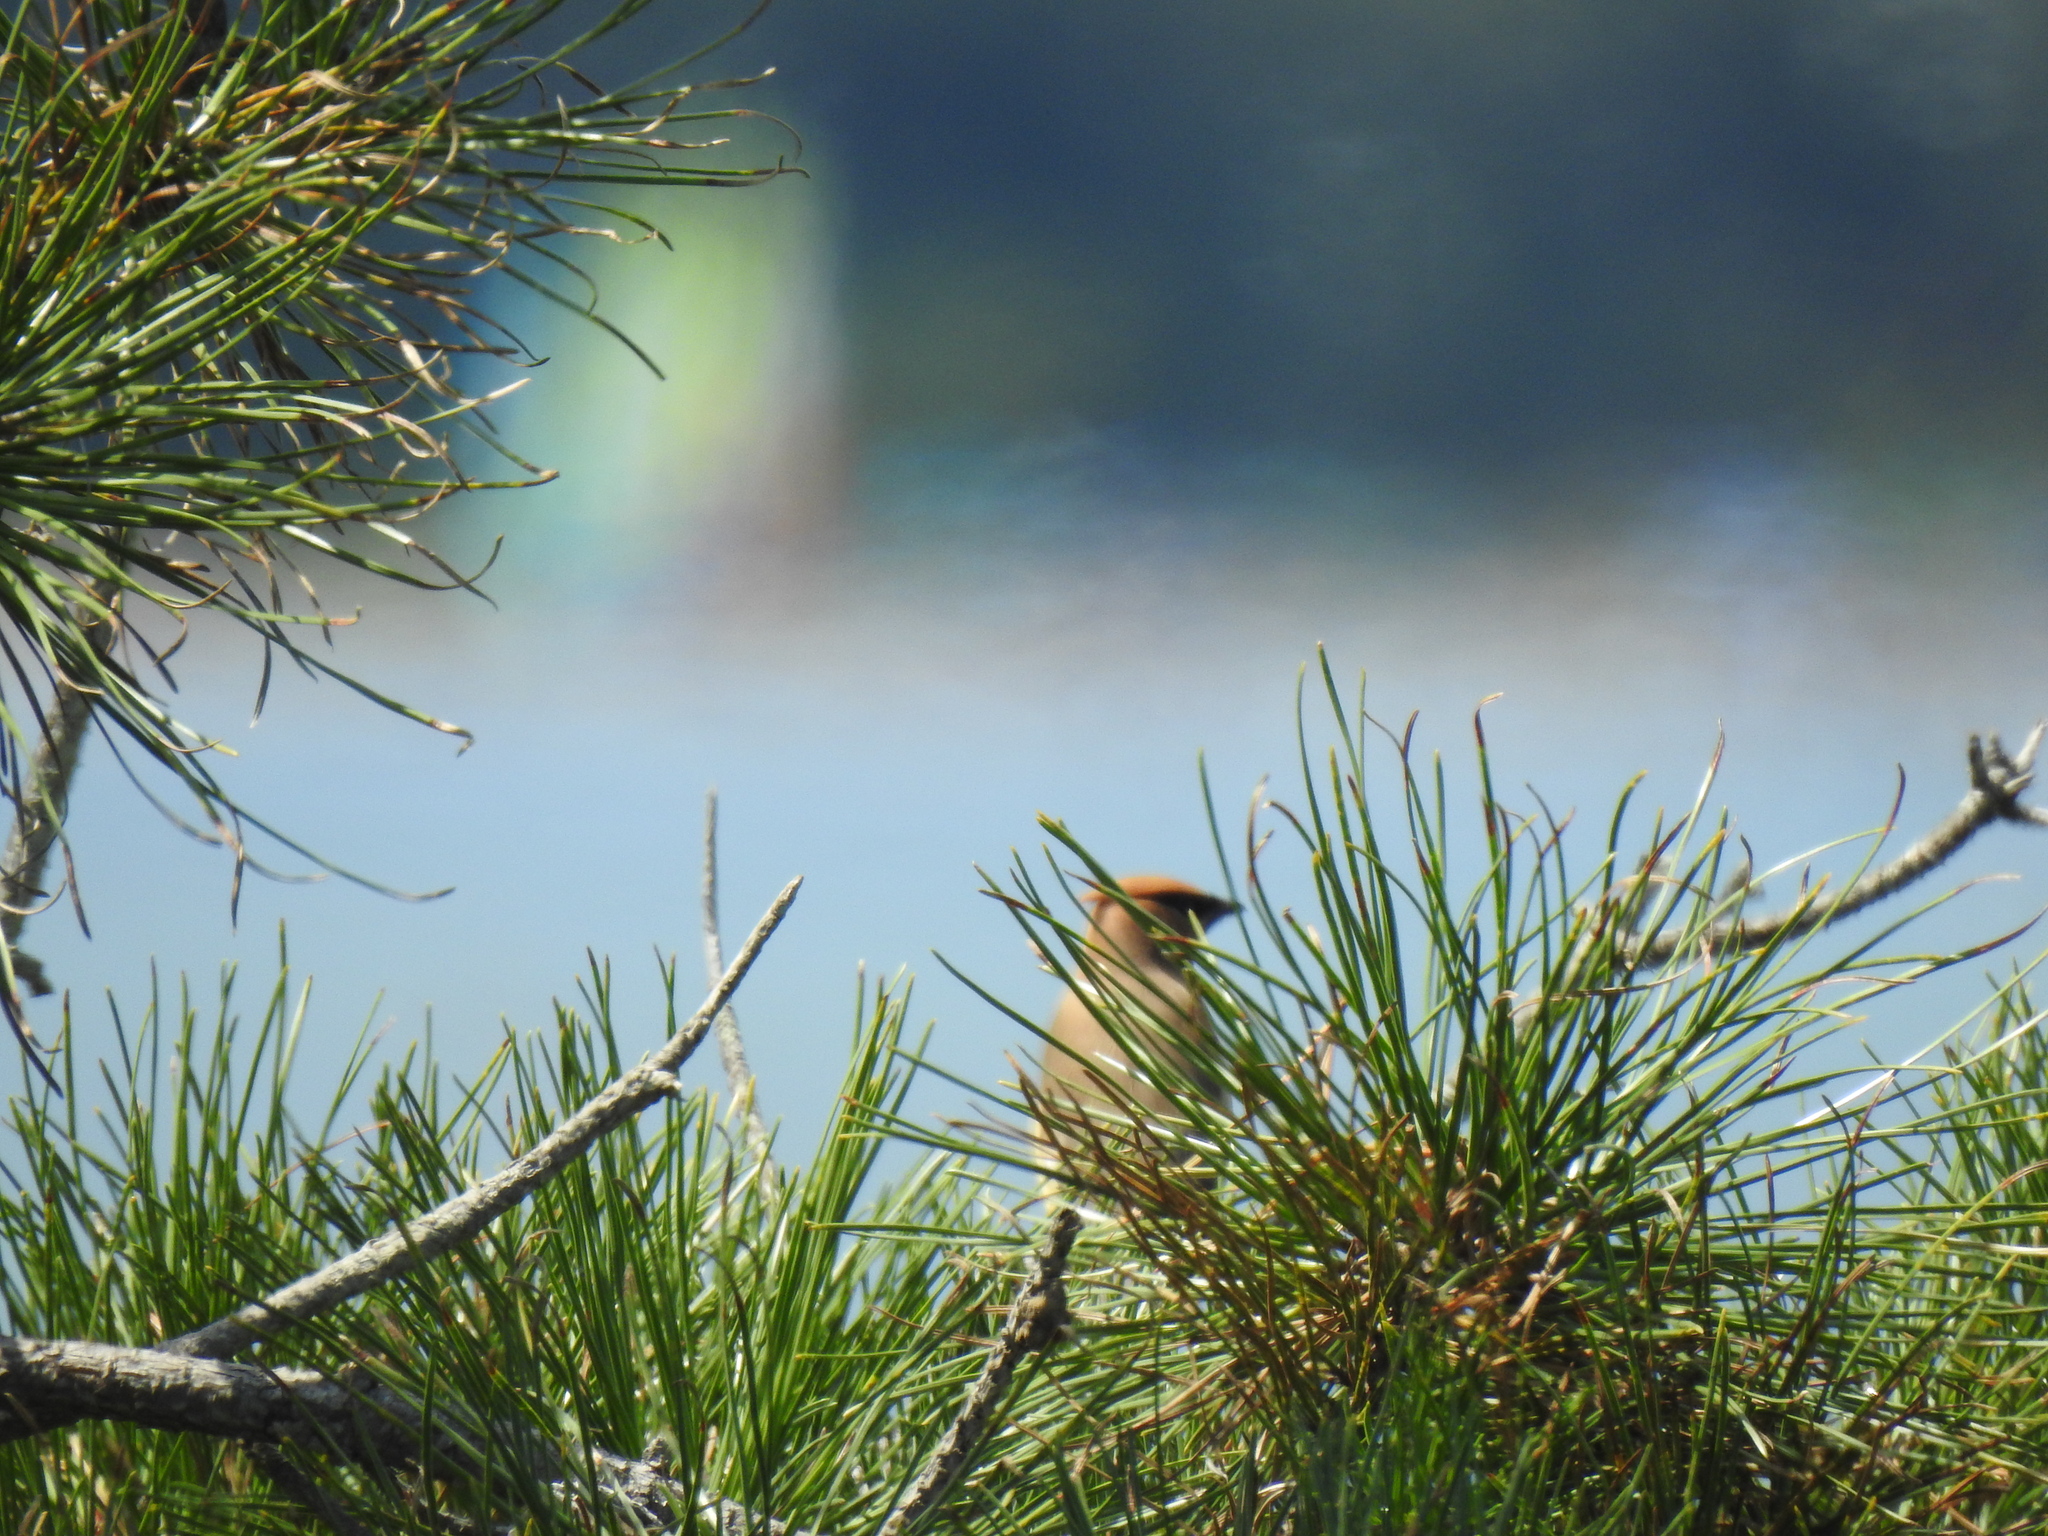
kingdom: Animalia
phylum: Chordata
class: Aves
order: Passeriformes
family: Bombycillidae
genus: Bombycilla
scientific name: Bombycilla cedrorum
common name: Cedar waxwing
